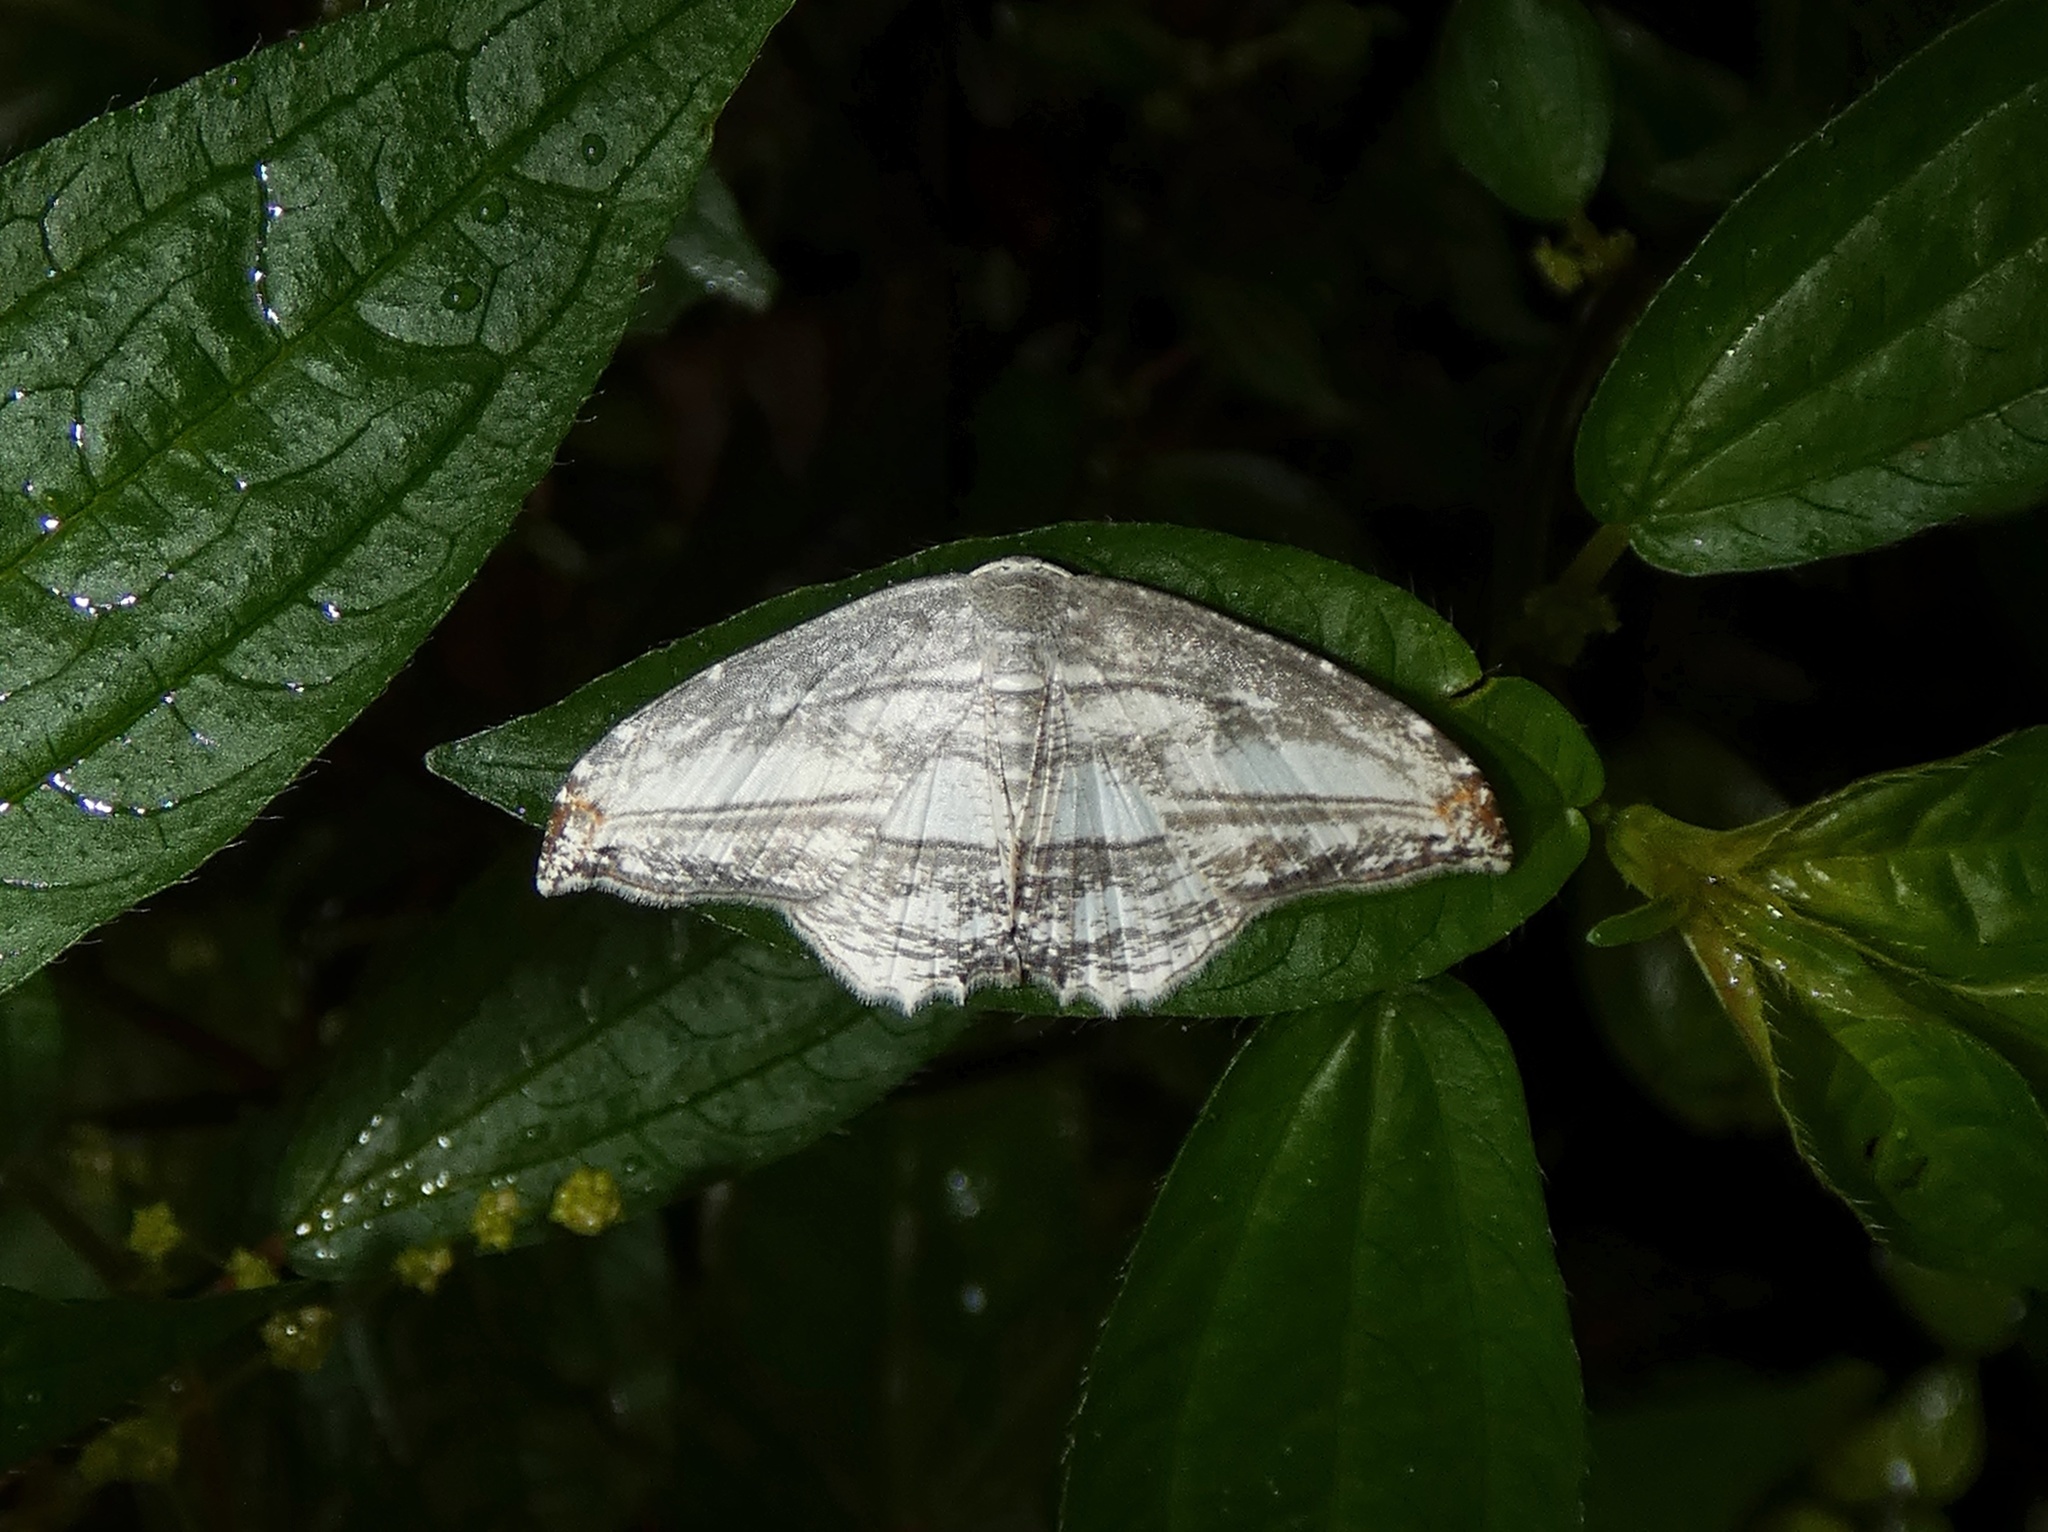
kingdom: Animalia
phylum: Arthropoda
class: Insecta
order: Lepidoptera
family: Uraniidae
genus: Morphomima
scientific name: Morphomima fulvitacta
